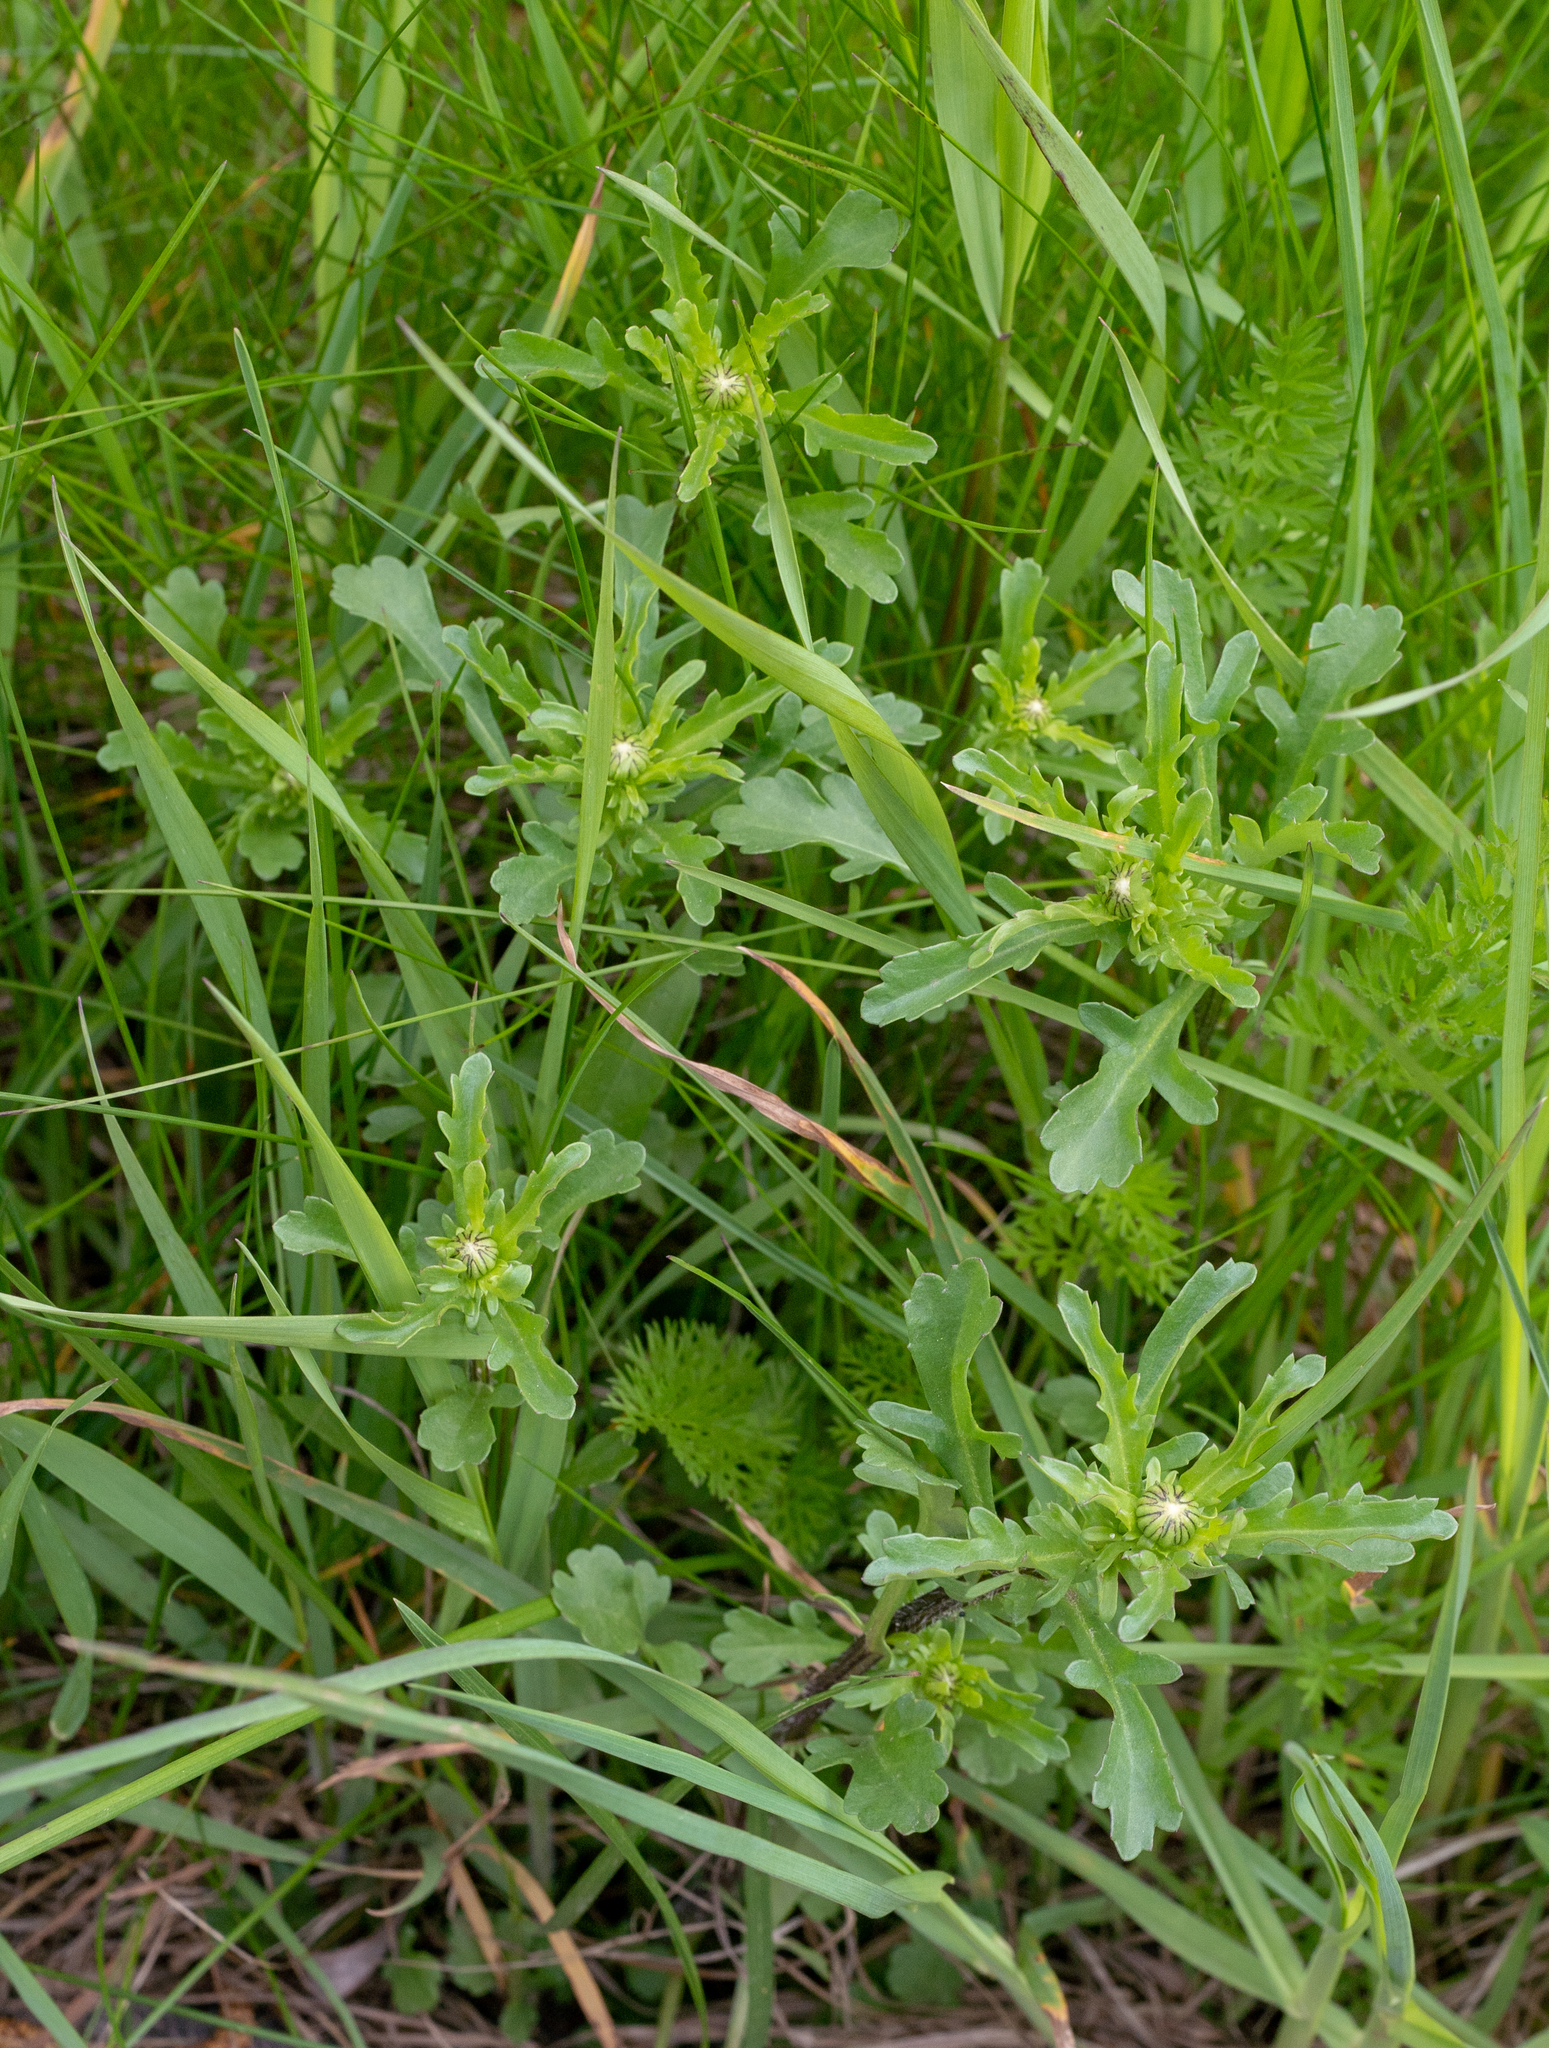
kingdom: Plantae
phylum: Tracheophyta
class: Magnoliopsida
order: Asterales
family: Asteraceae
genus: Leucanthemum
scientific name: Leucanthemum vulgare
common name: Oxeye daisy
